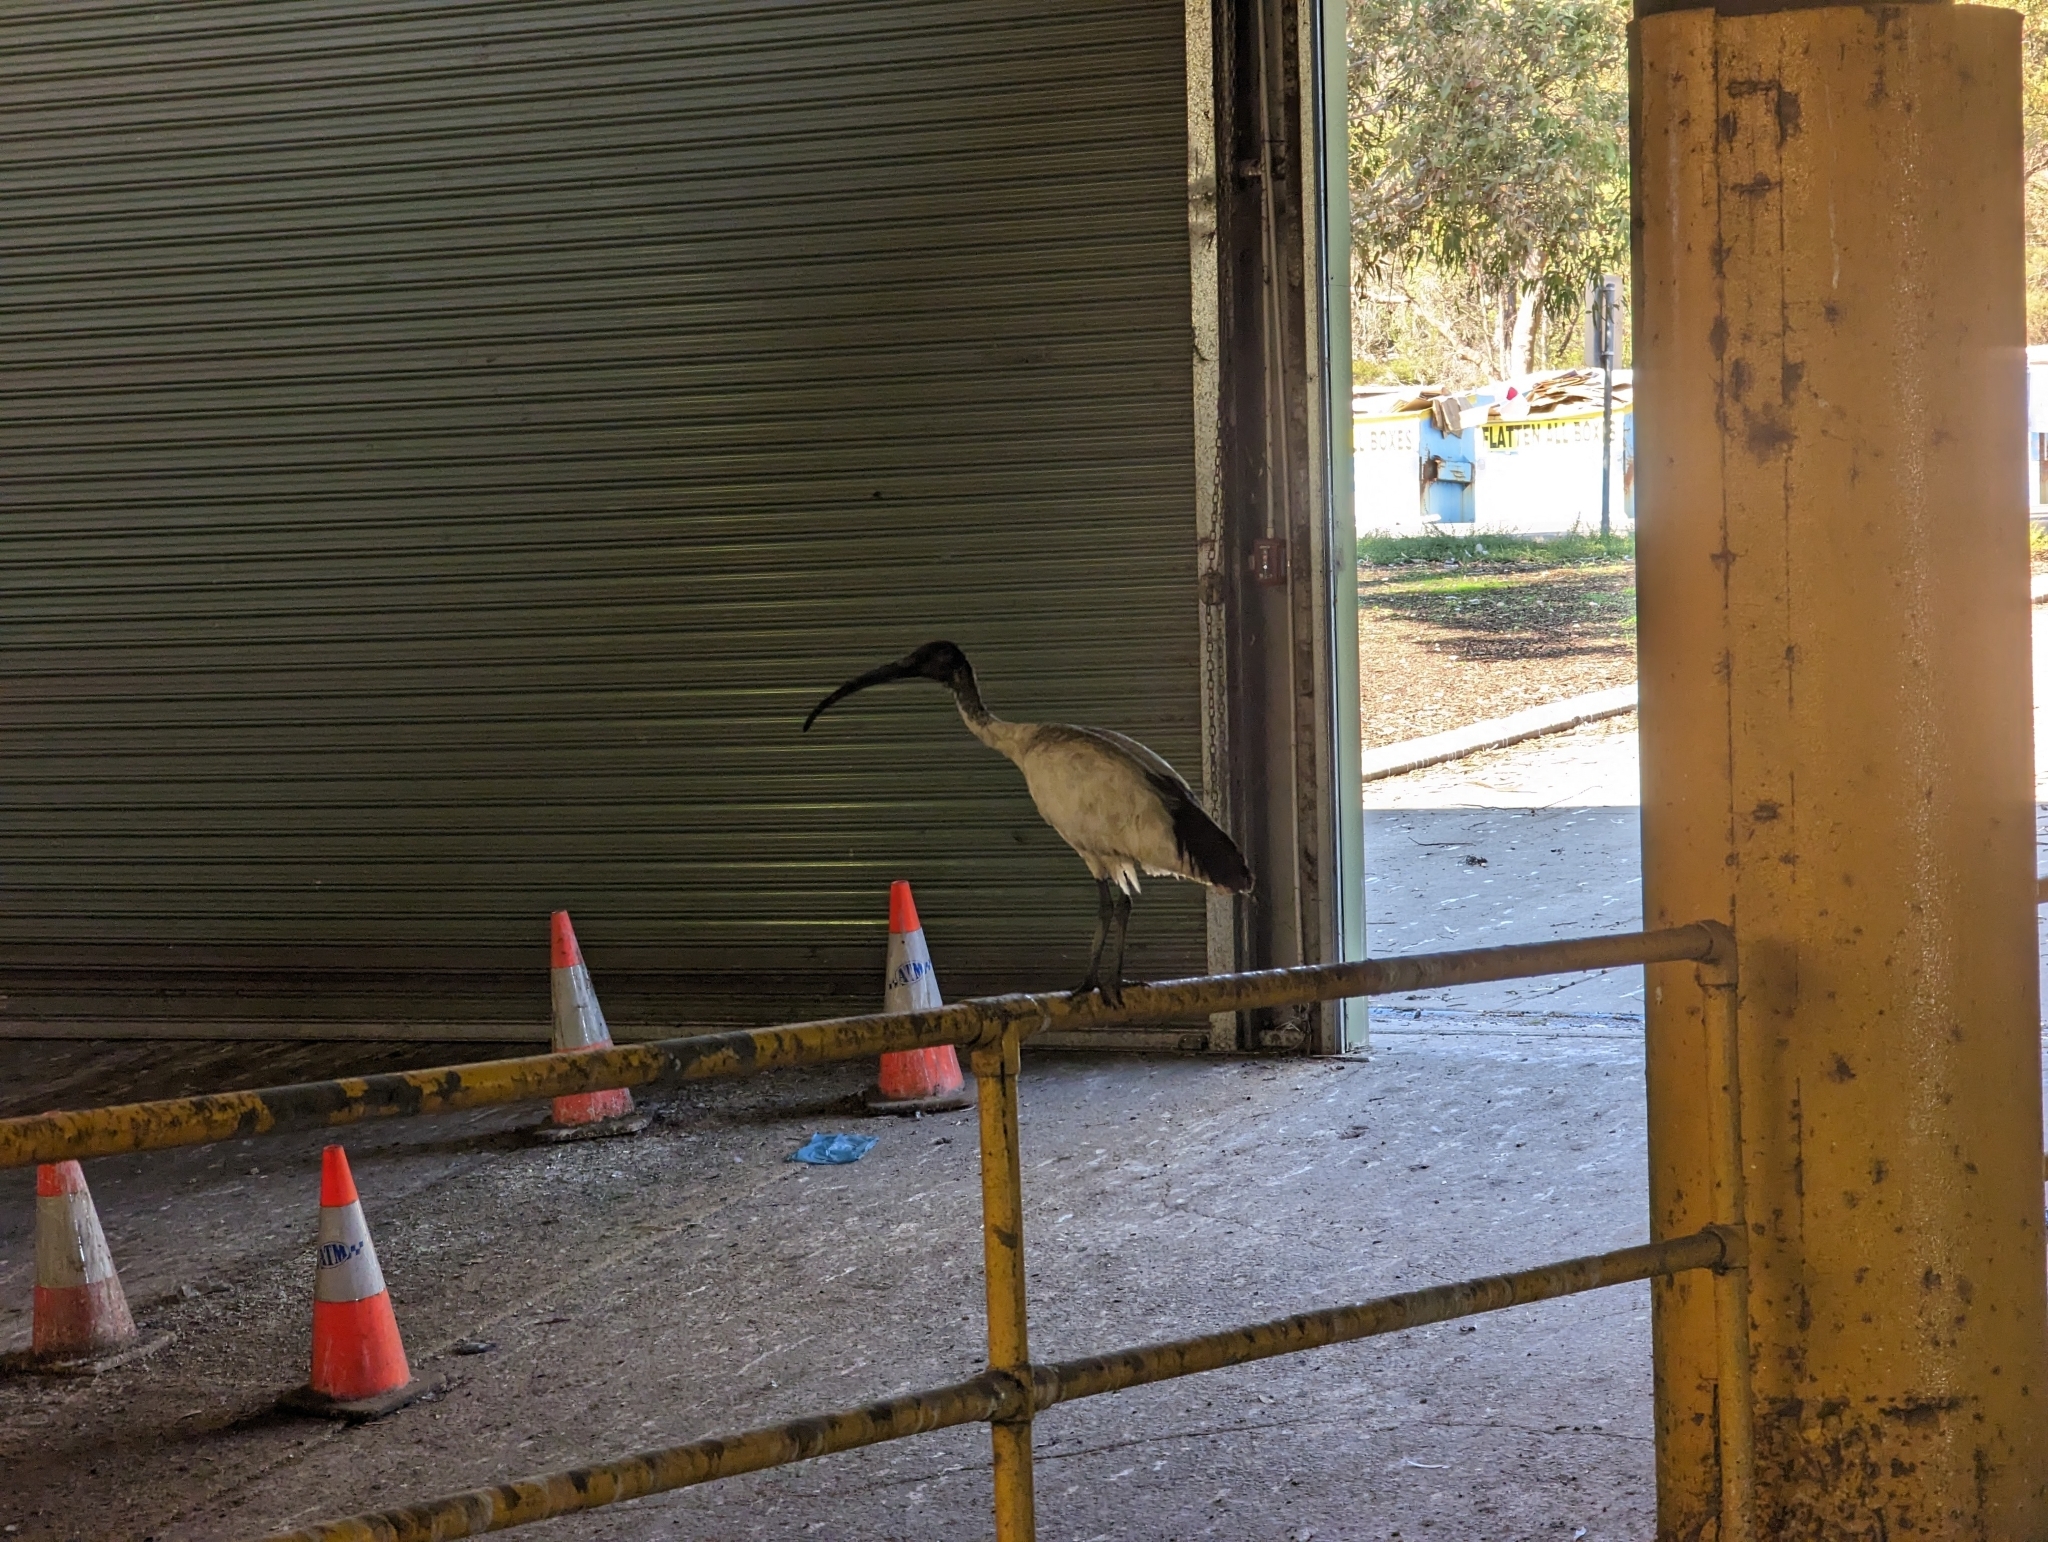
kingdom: Animalia
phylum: Chordata
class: Aves
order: Pelecaniformes
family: Threskiornithidae
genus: Threskiornis
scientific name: Threskiornis molucca
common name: Australian white ibis
